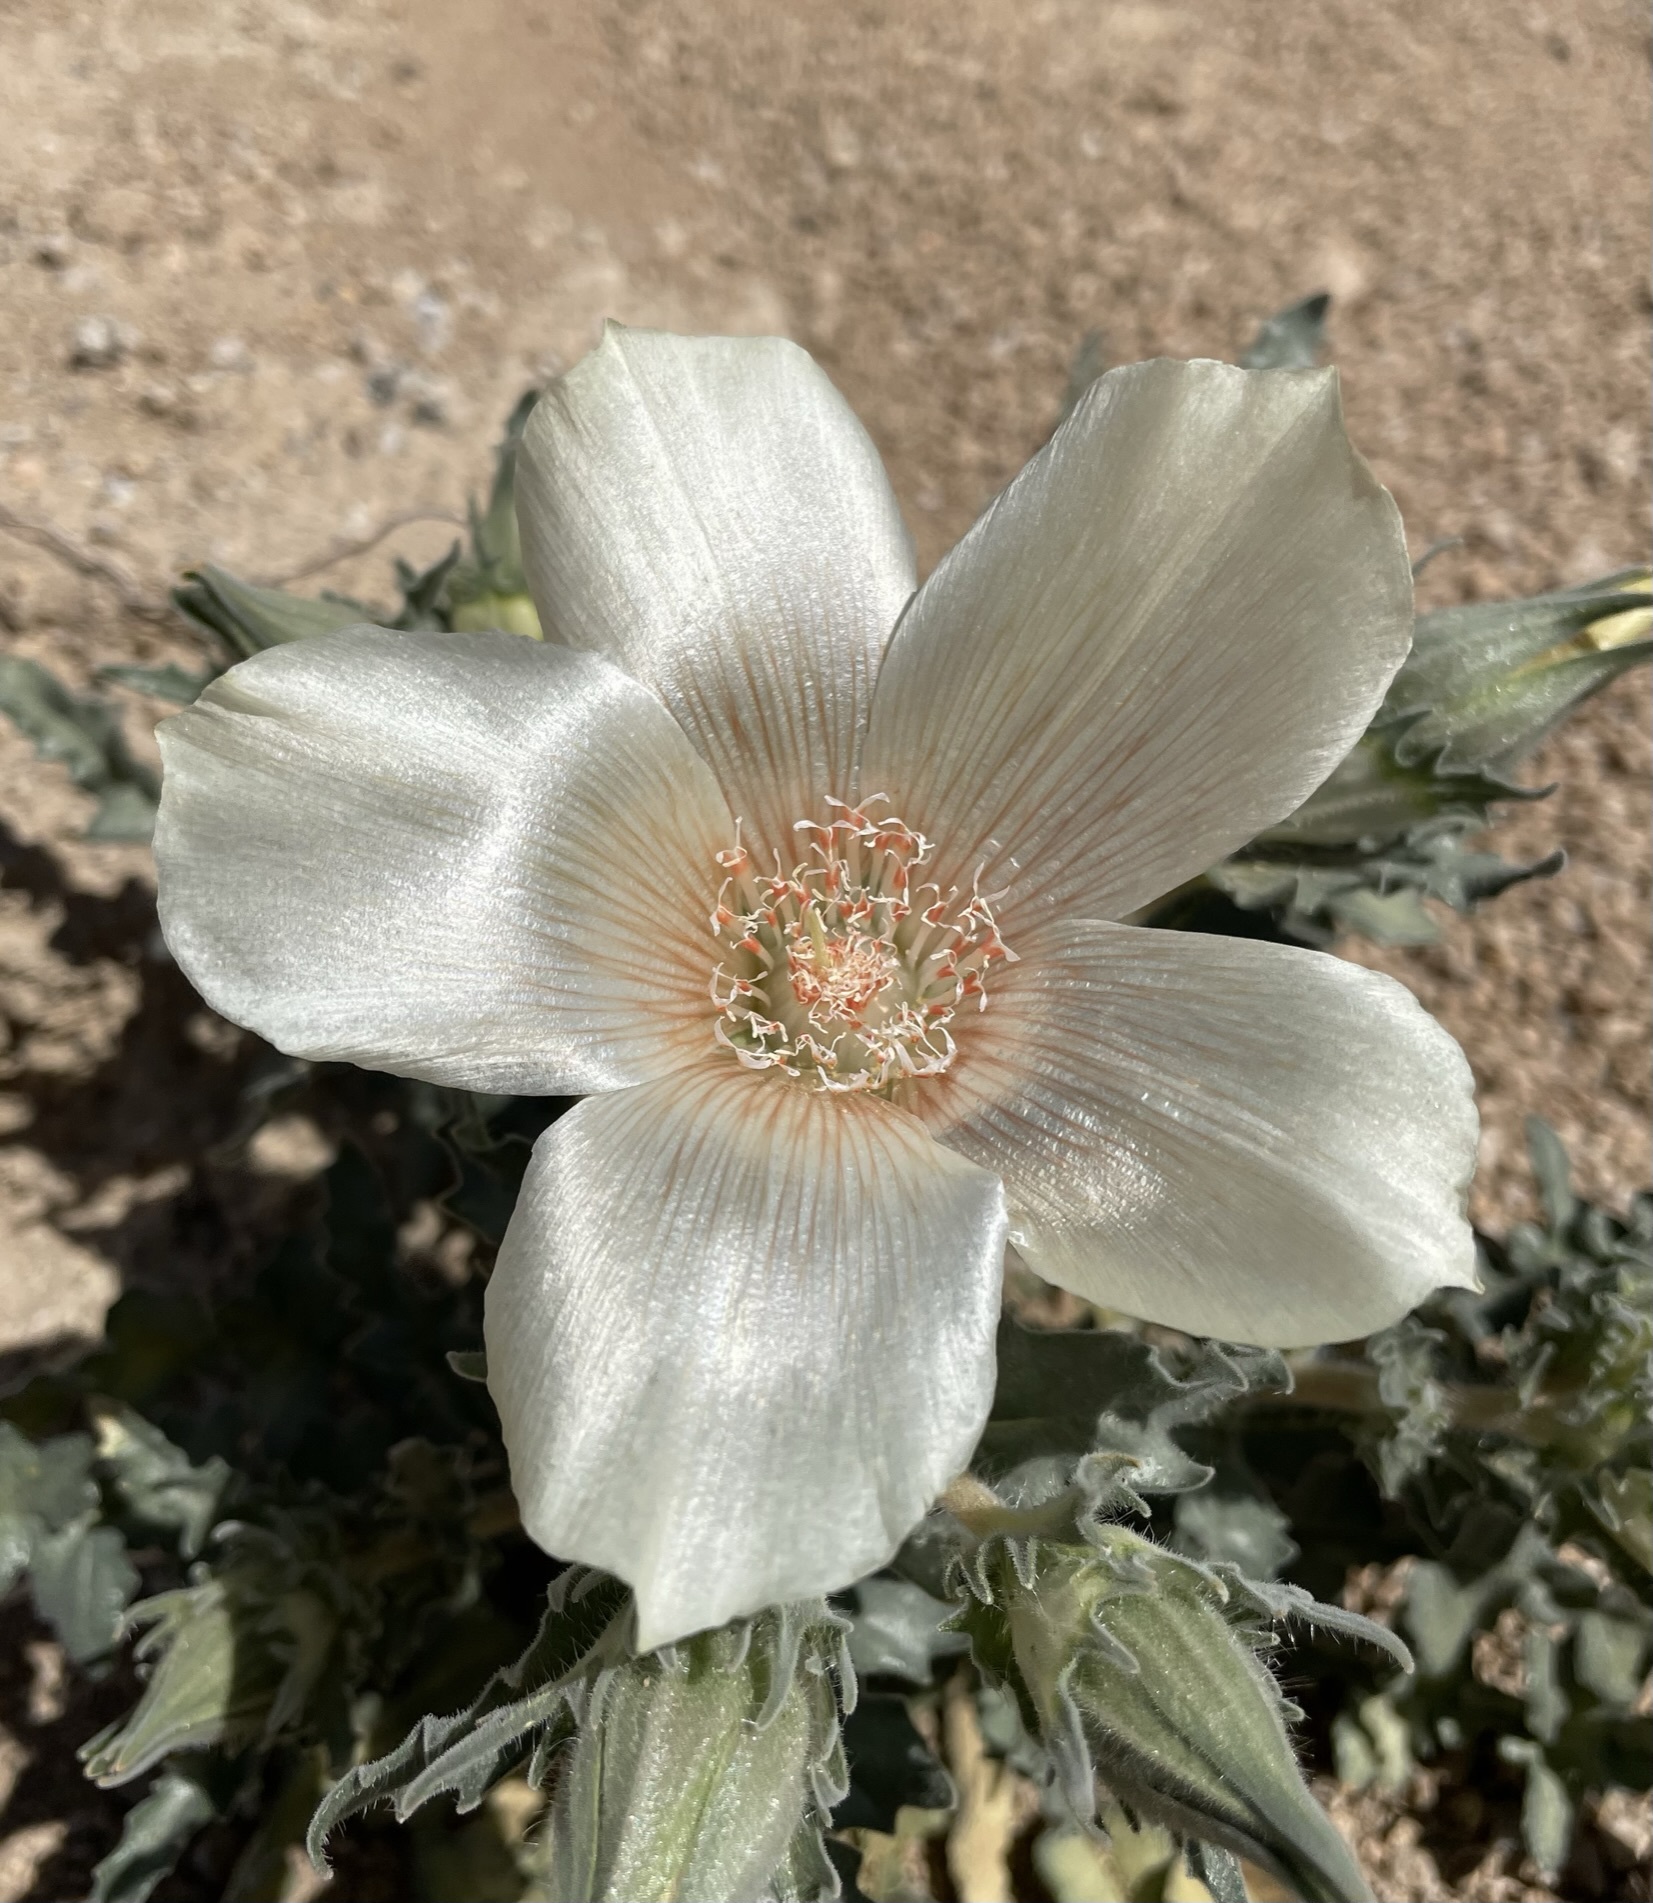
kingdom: Plantae
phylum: Tracheophyta
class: Magnoliopsida
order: Cornales
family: Loasaceae
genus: Mentzelia
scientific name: Mentzelia involucrata
